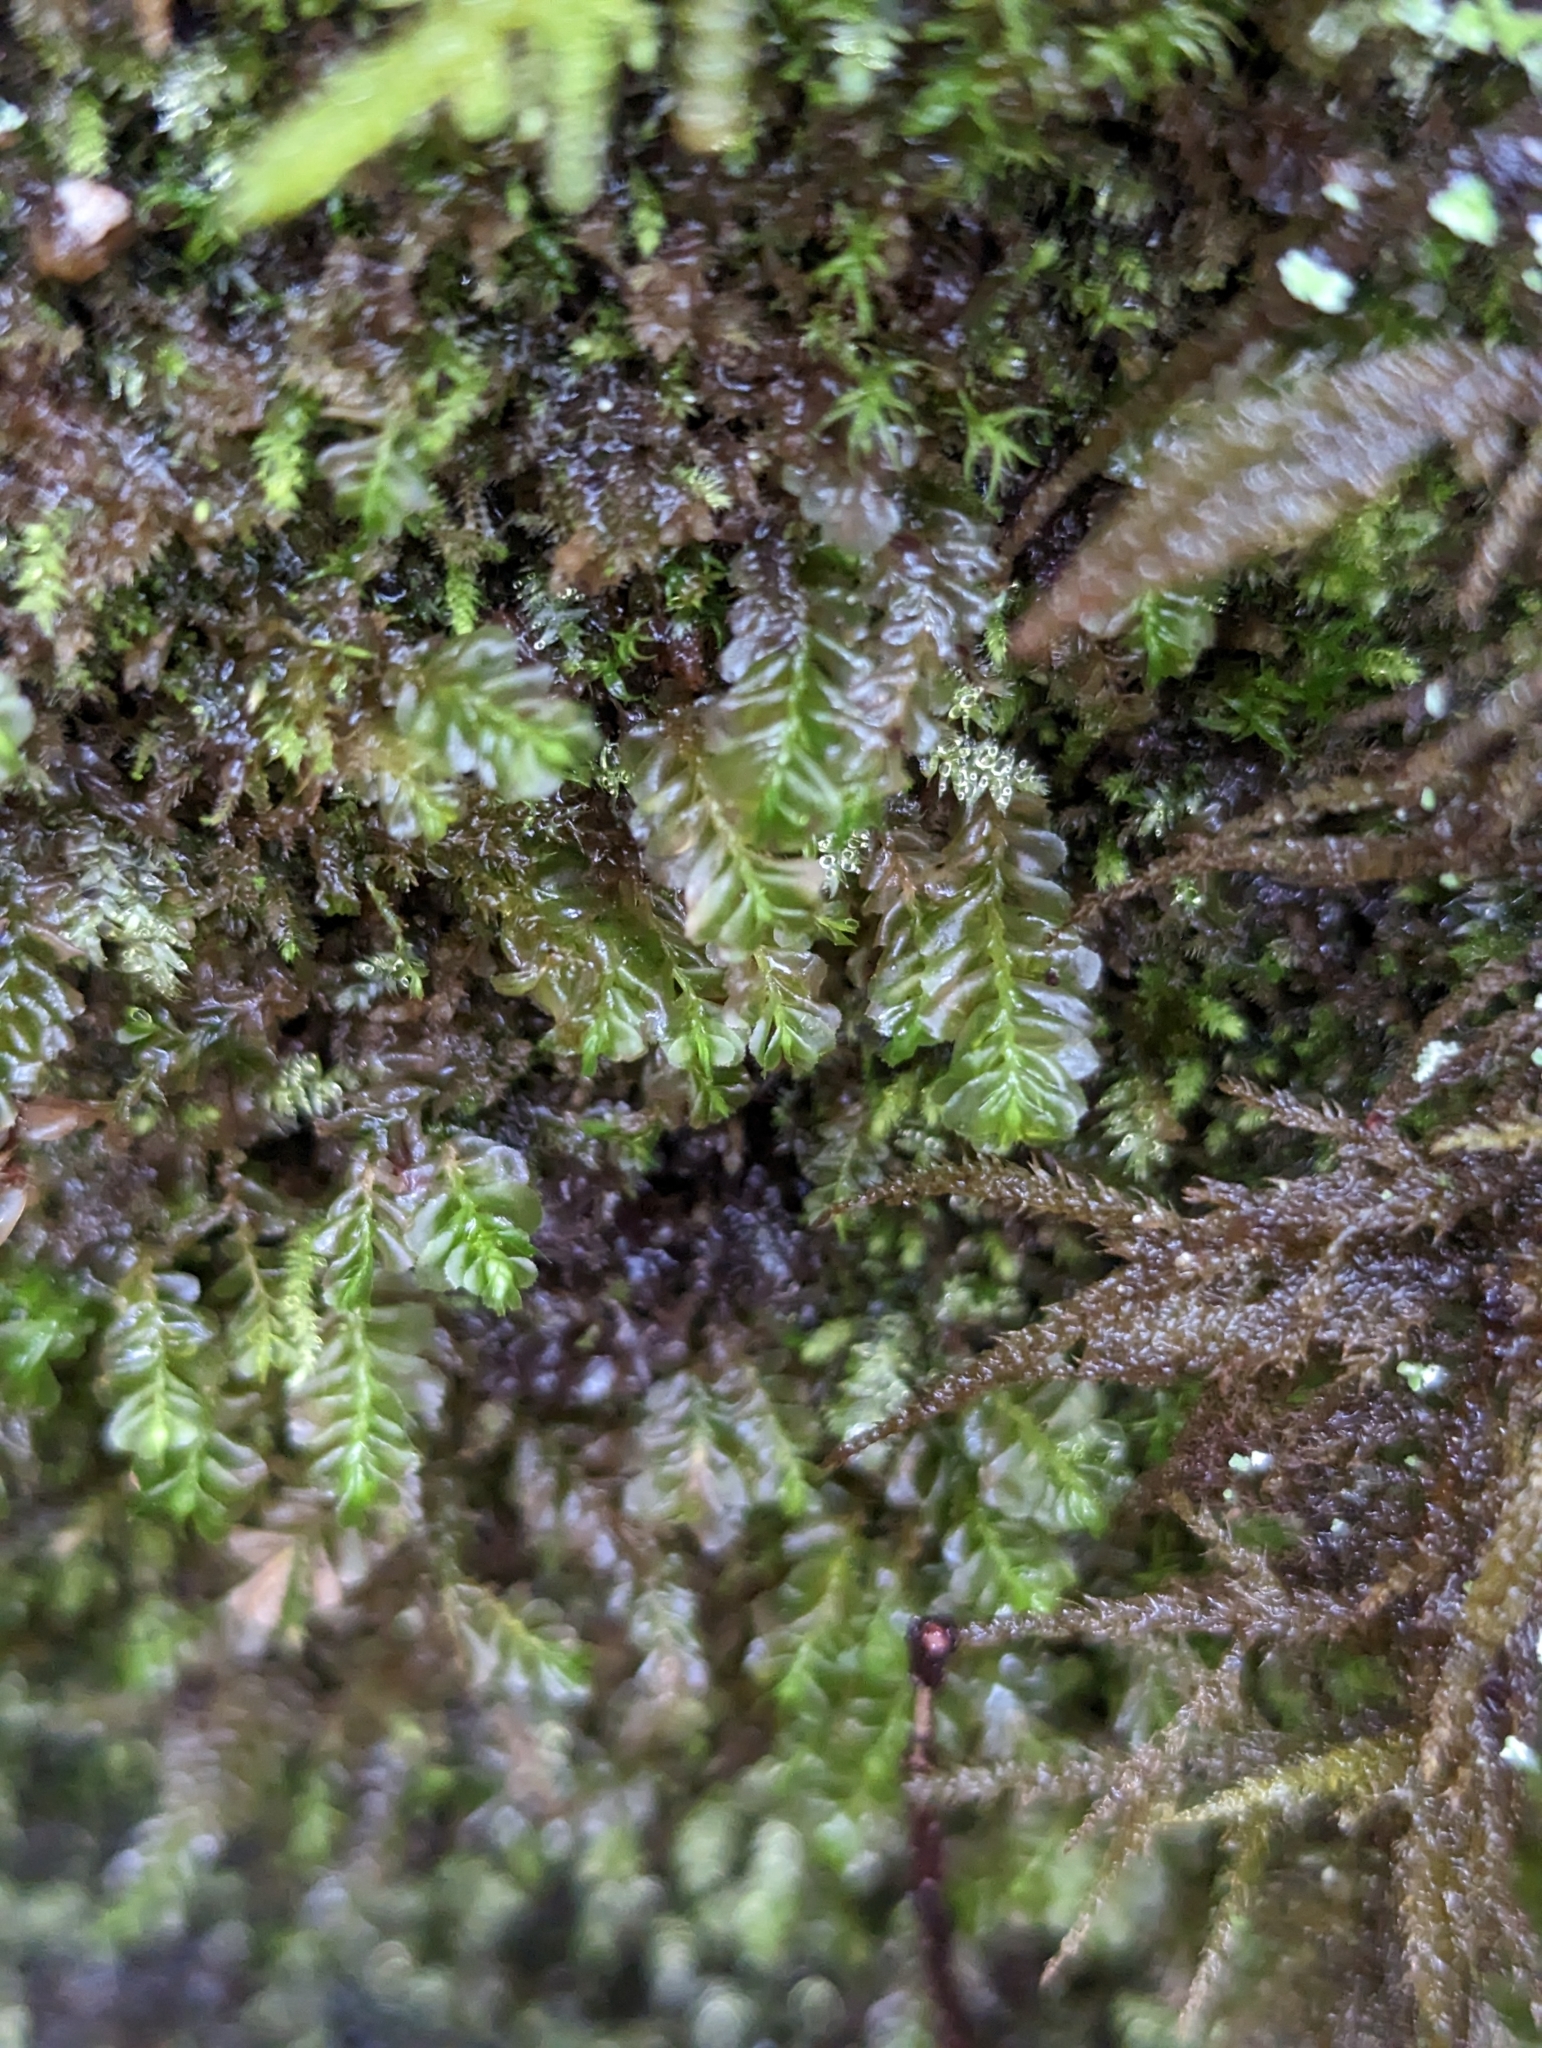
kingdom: Plantae
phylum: Marchantiophyta
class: Jungermanniopsida
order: Jungermanniales
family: Plagiochilaceae
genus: Plagiochila
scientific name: Plagiochila porelloides
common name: Lesser featherwort
